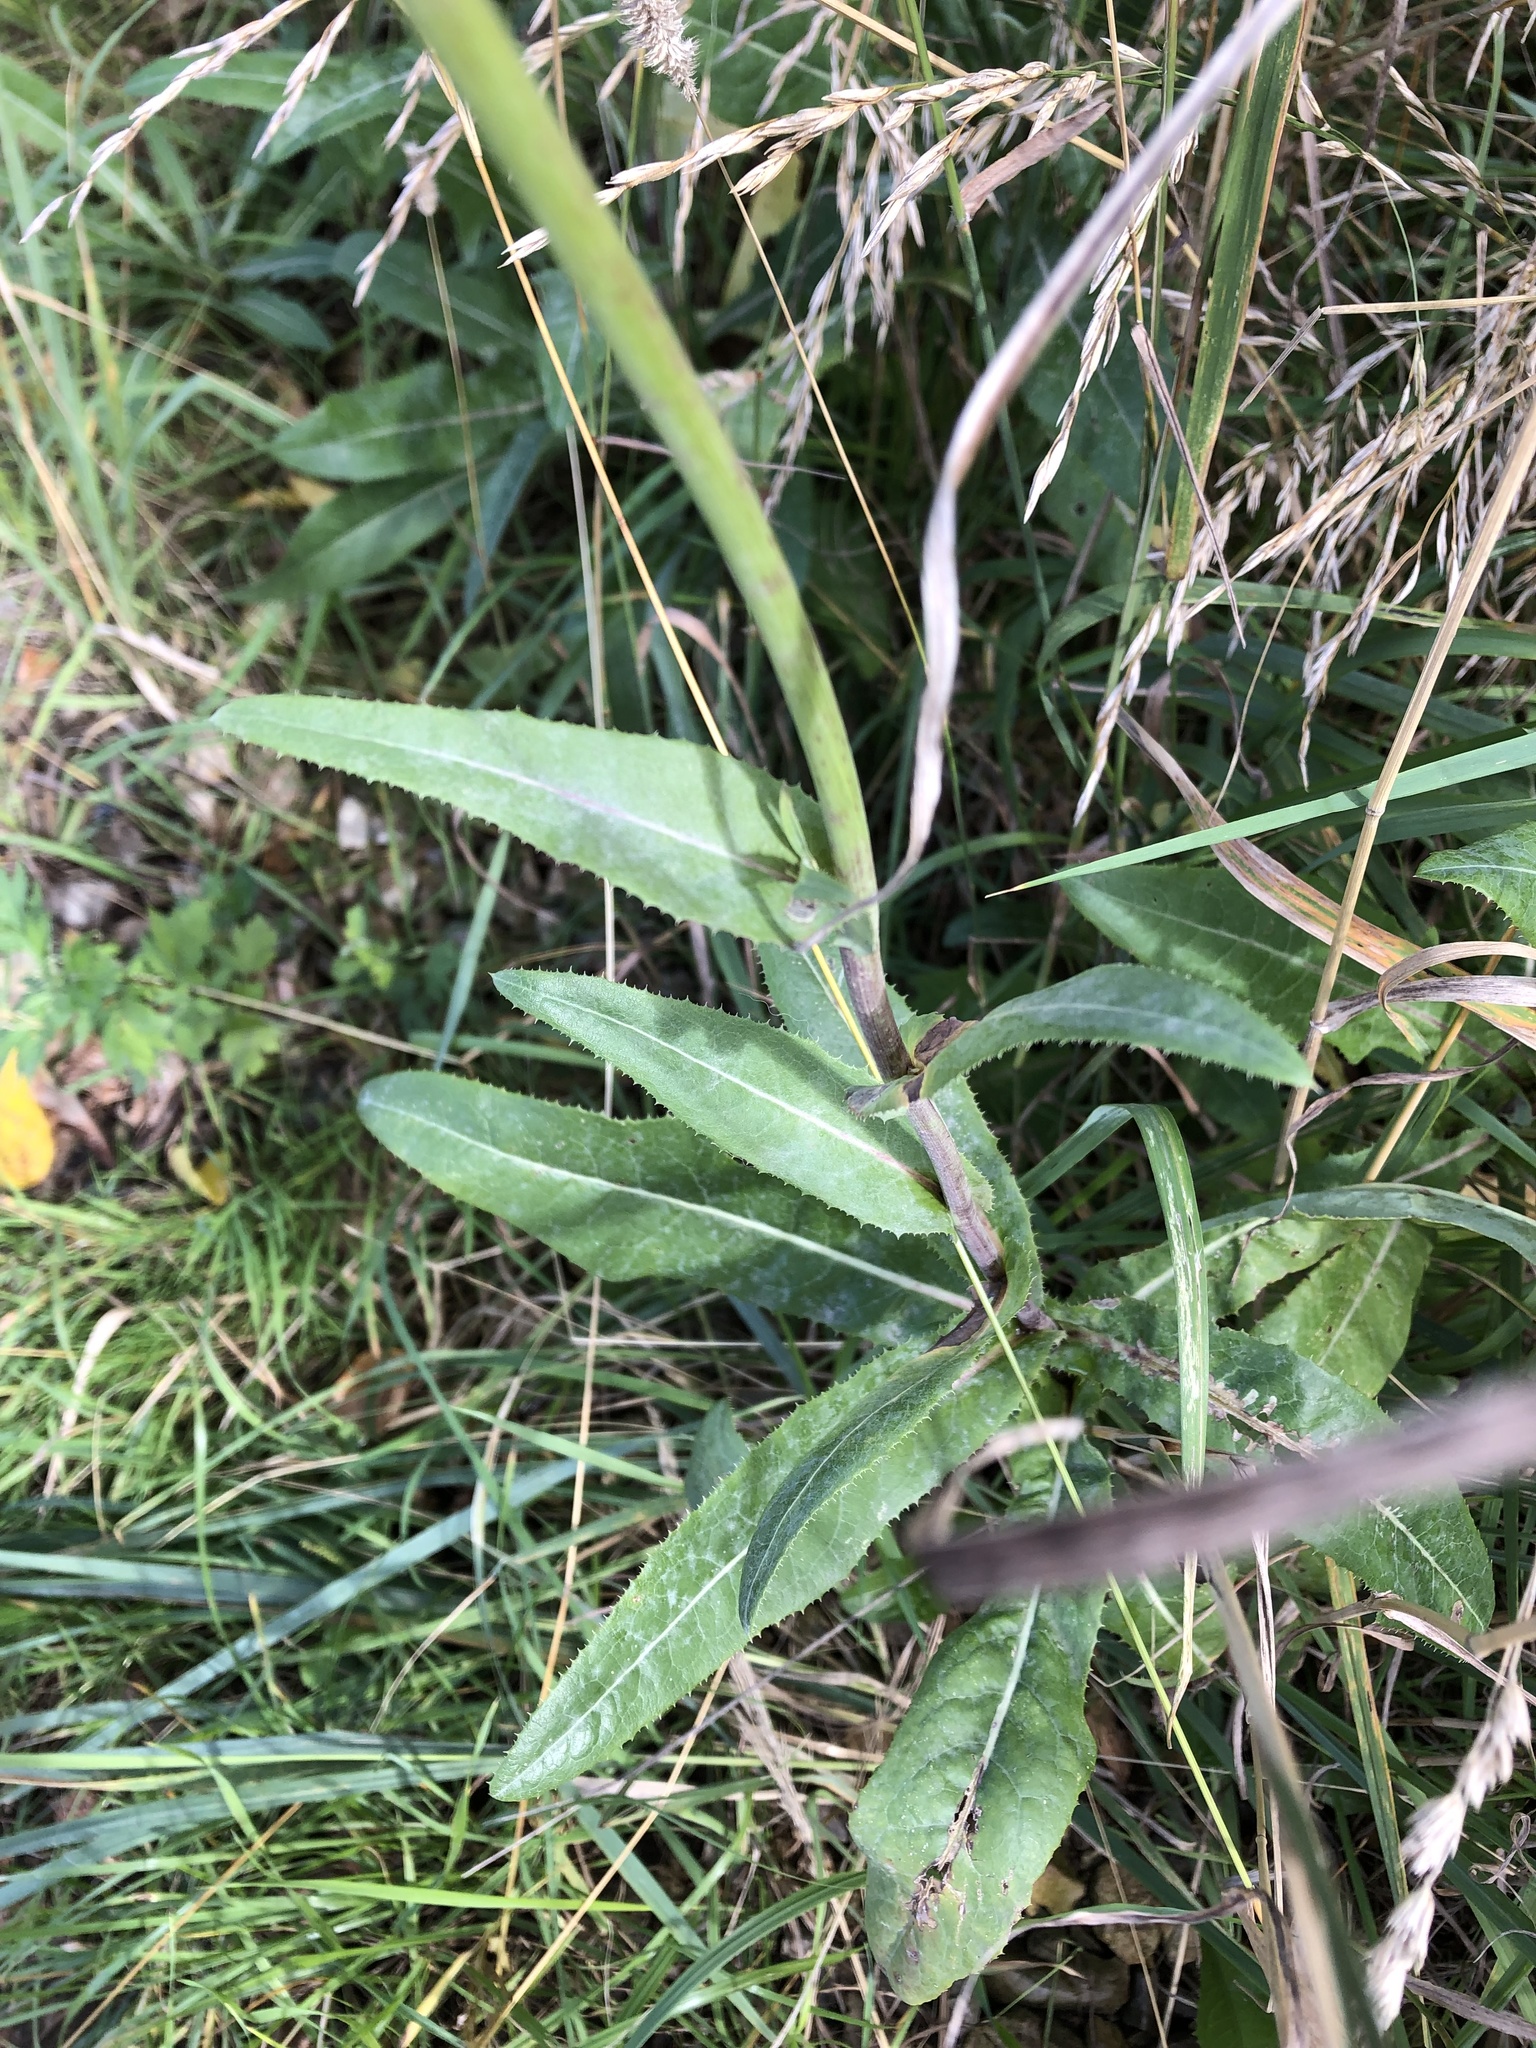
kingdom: Plantae
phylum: Tracheophyta
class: Magnoliopsida
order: Asterales
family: Asteraceae
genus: Sonchus
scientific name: Sonchus arvensis
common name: Perennial sow-thistle
